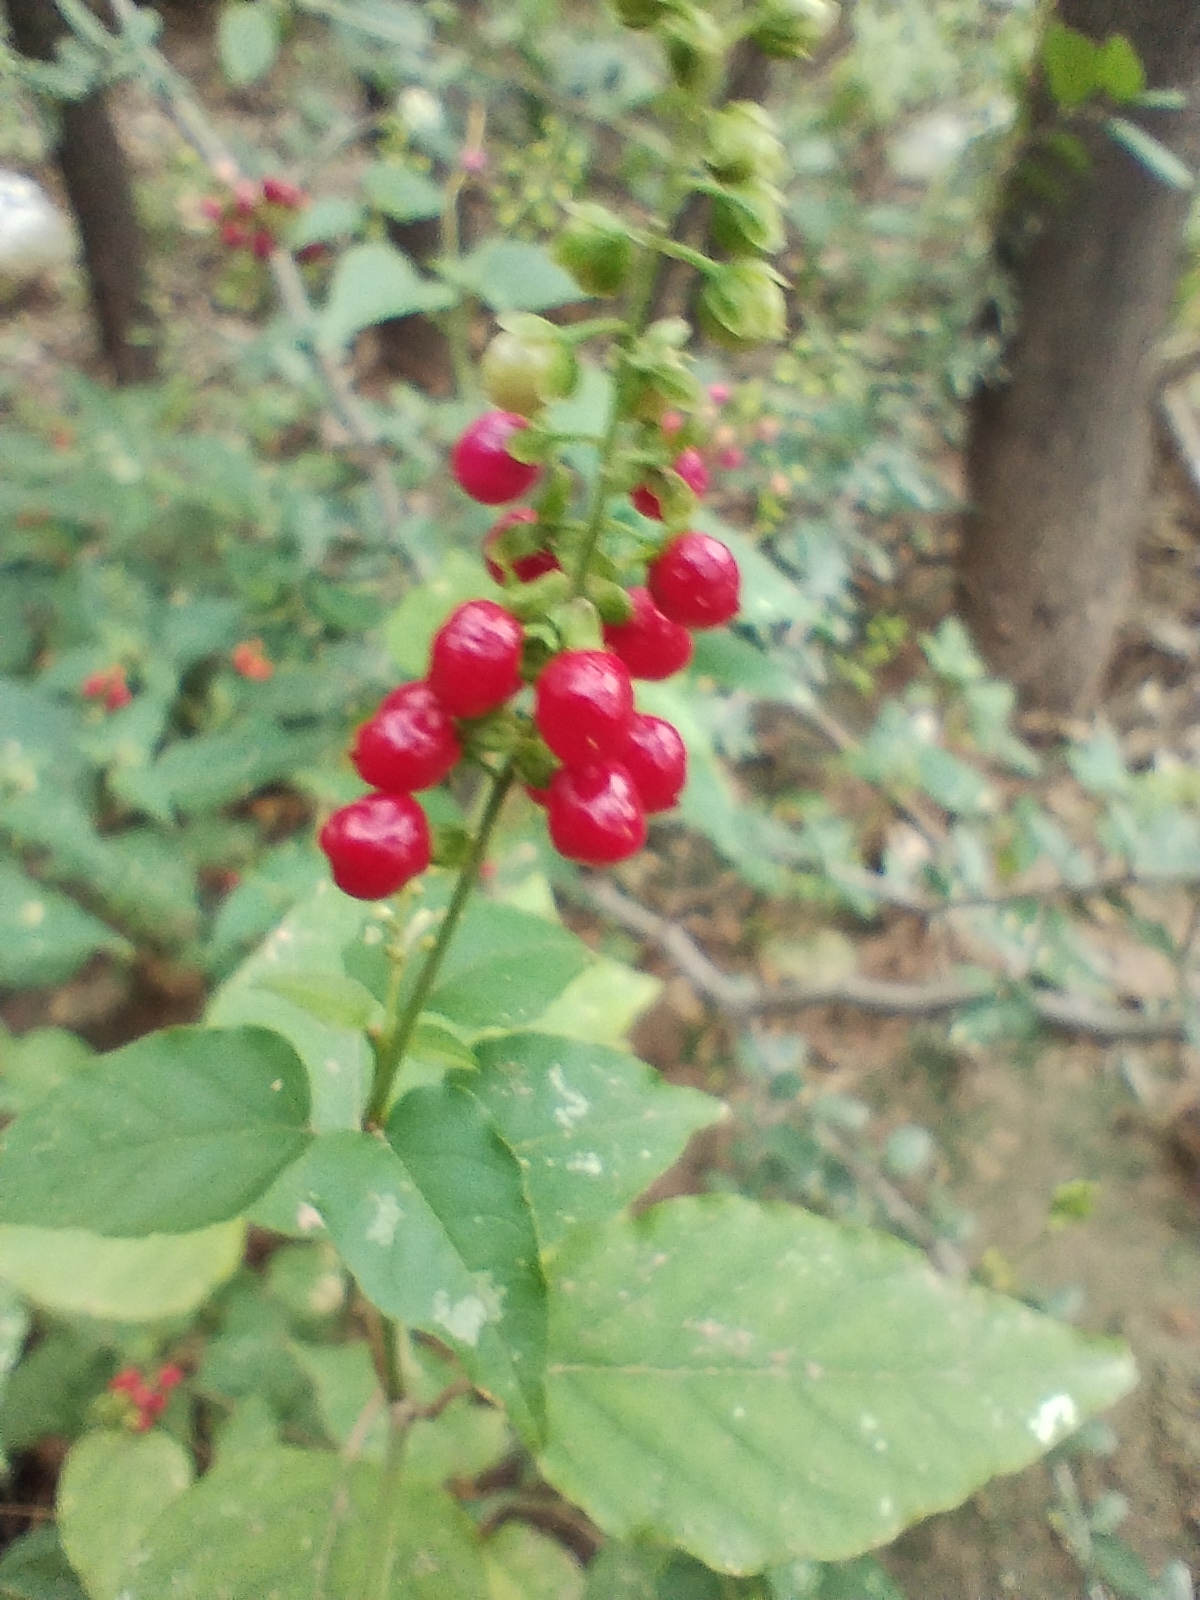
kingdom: Plantae
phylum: Tracheophyta
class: Magnoliopsida
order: Caryophyllales
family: Phytolaccaceae
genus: Rivina
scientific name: Rivina humilis
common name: Rougeplant
